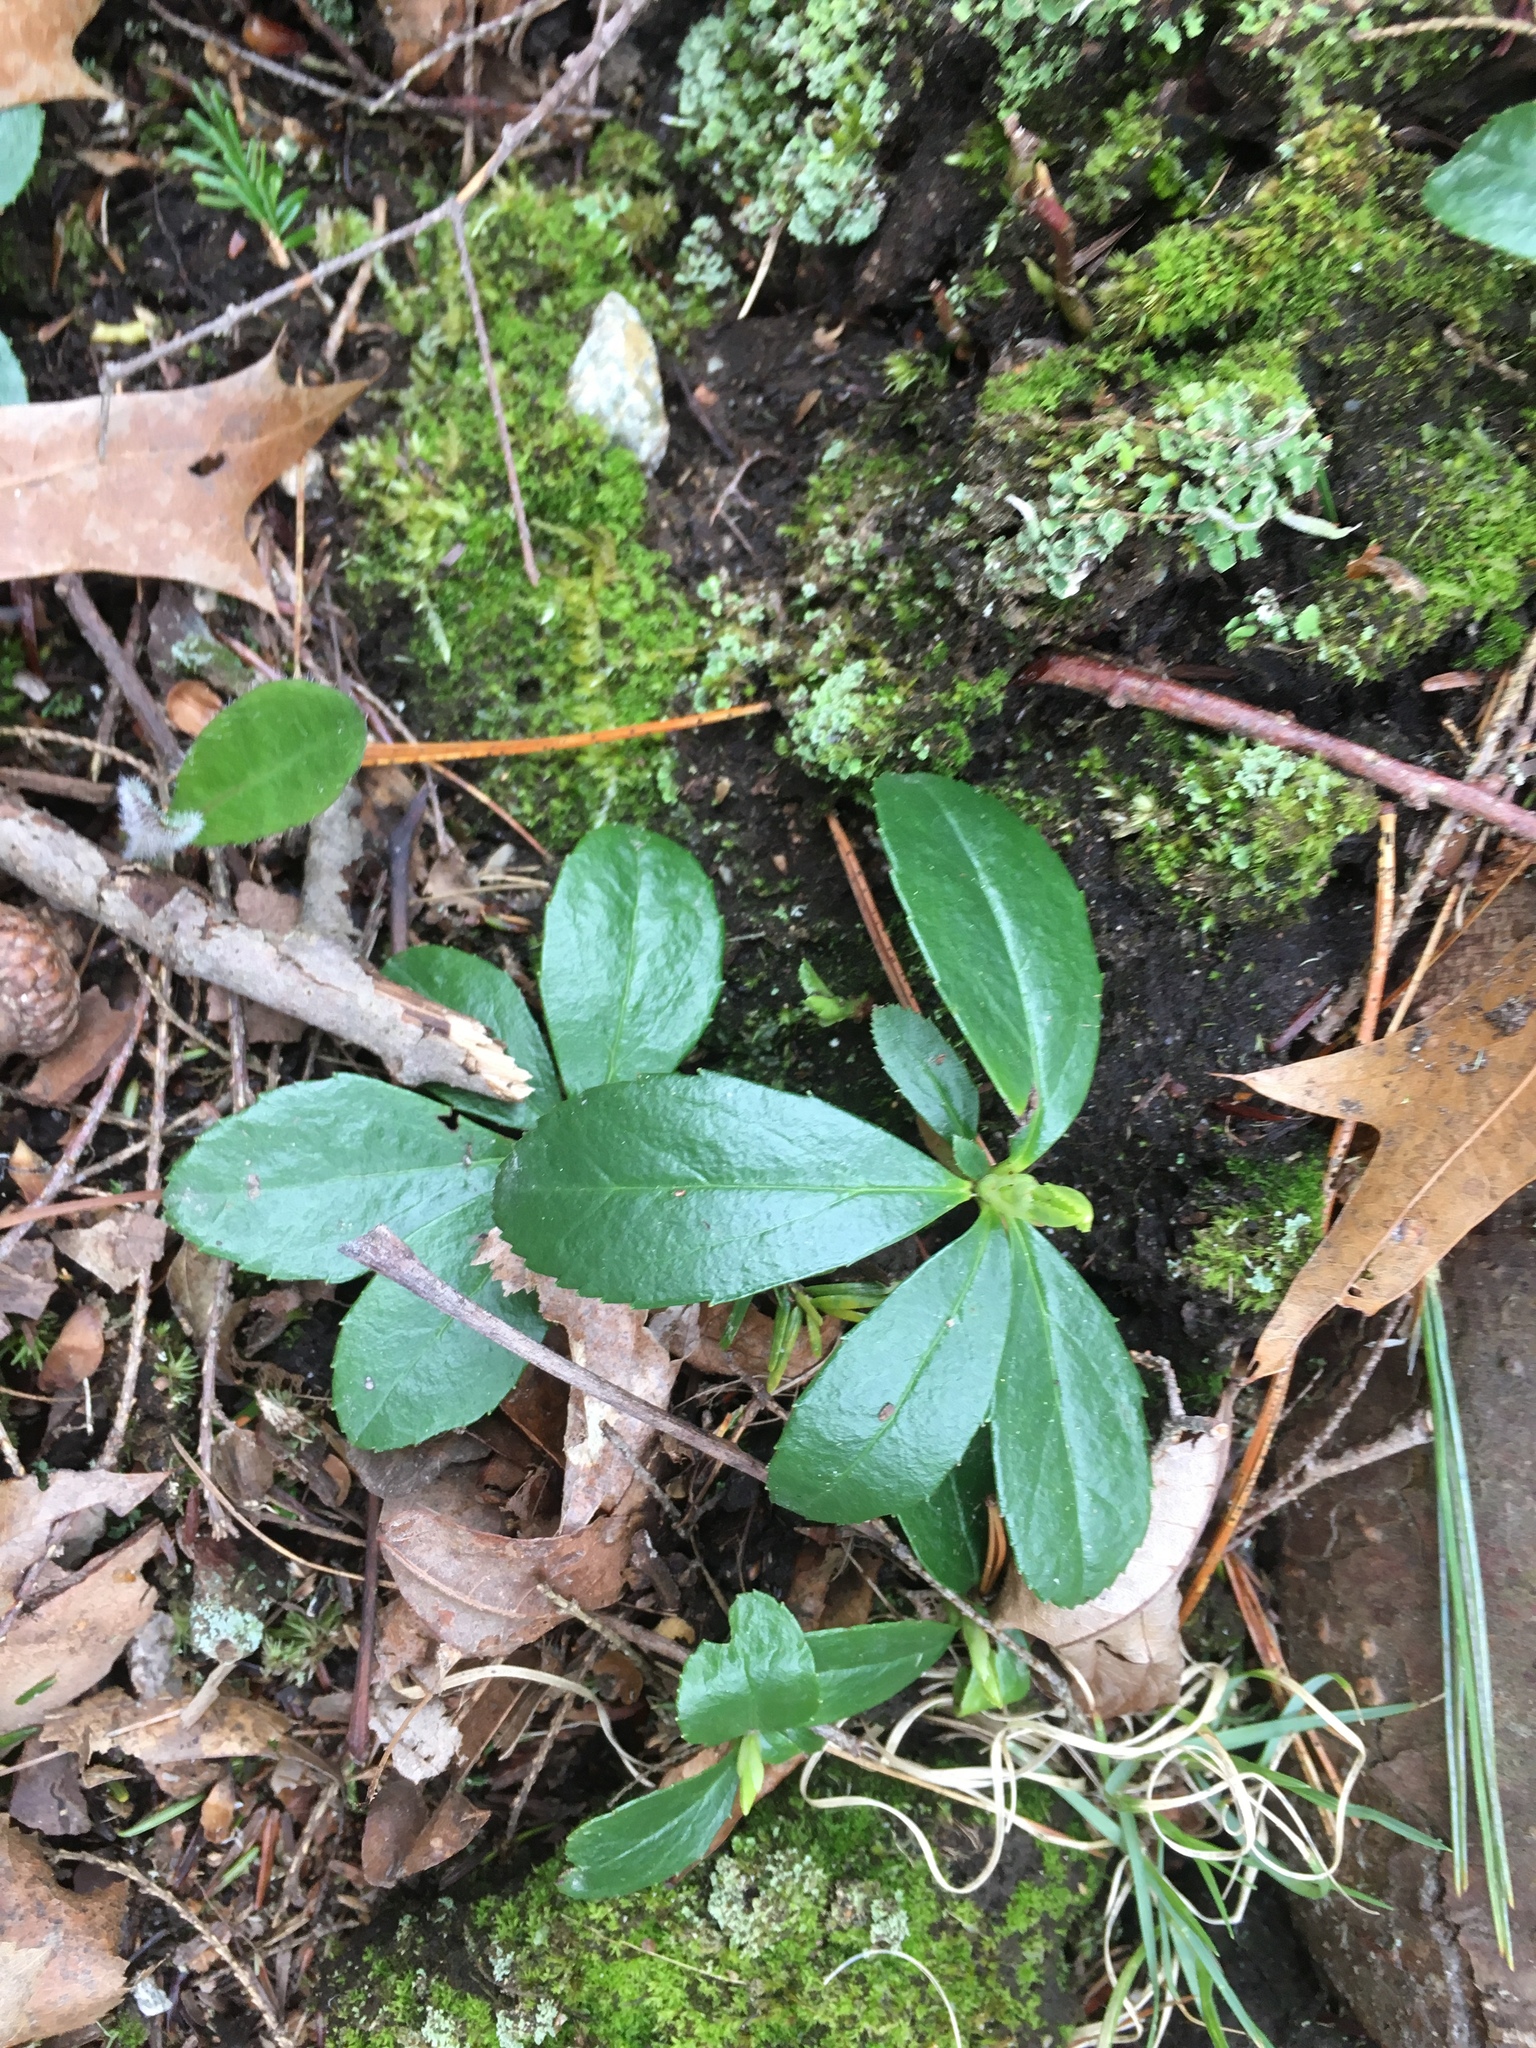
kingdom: Plantae
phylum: Tracheophyta
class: Magnoliopsida
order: Ericales
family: Ericaceae
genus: Gaultheria
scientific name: Gaultheria procumbens
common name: Checkerberry
